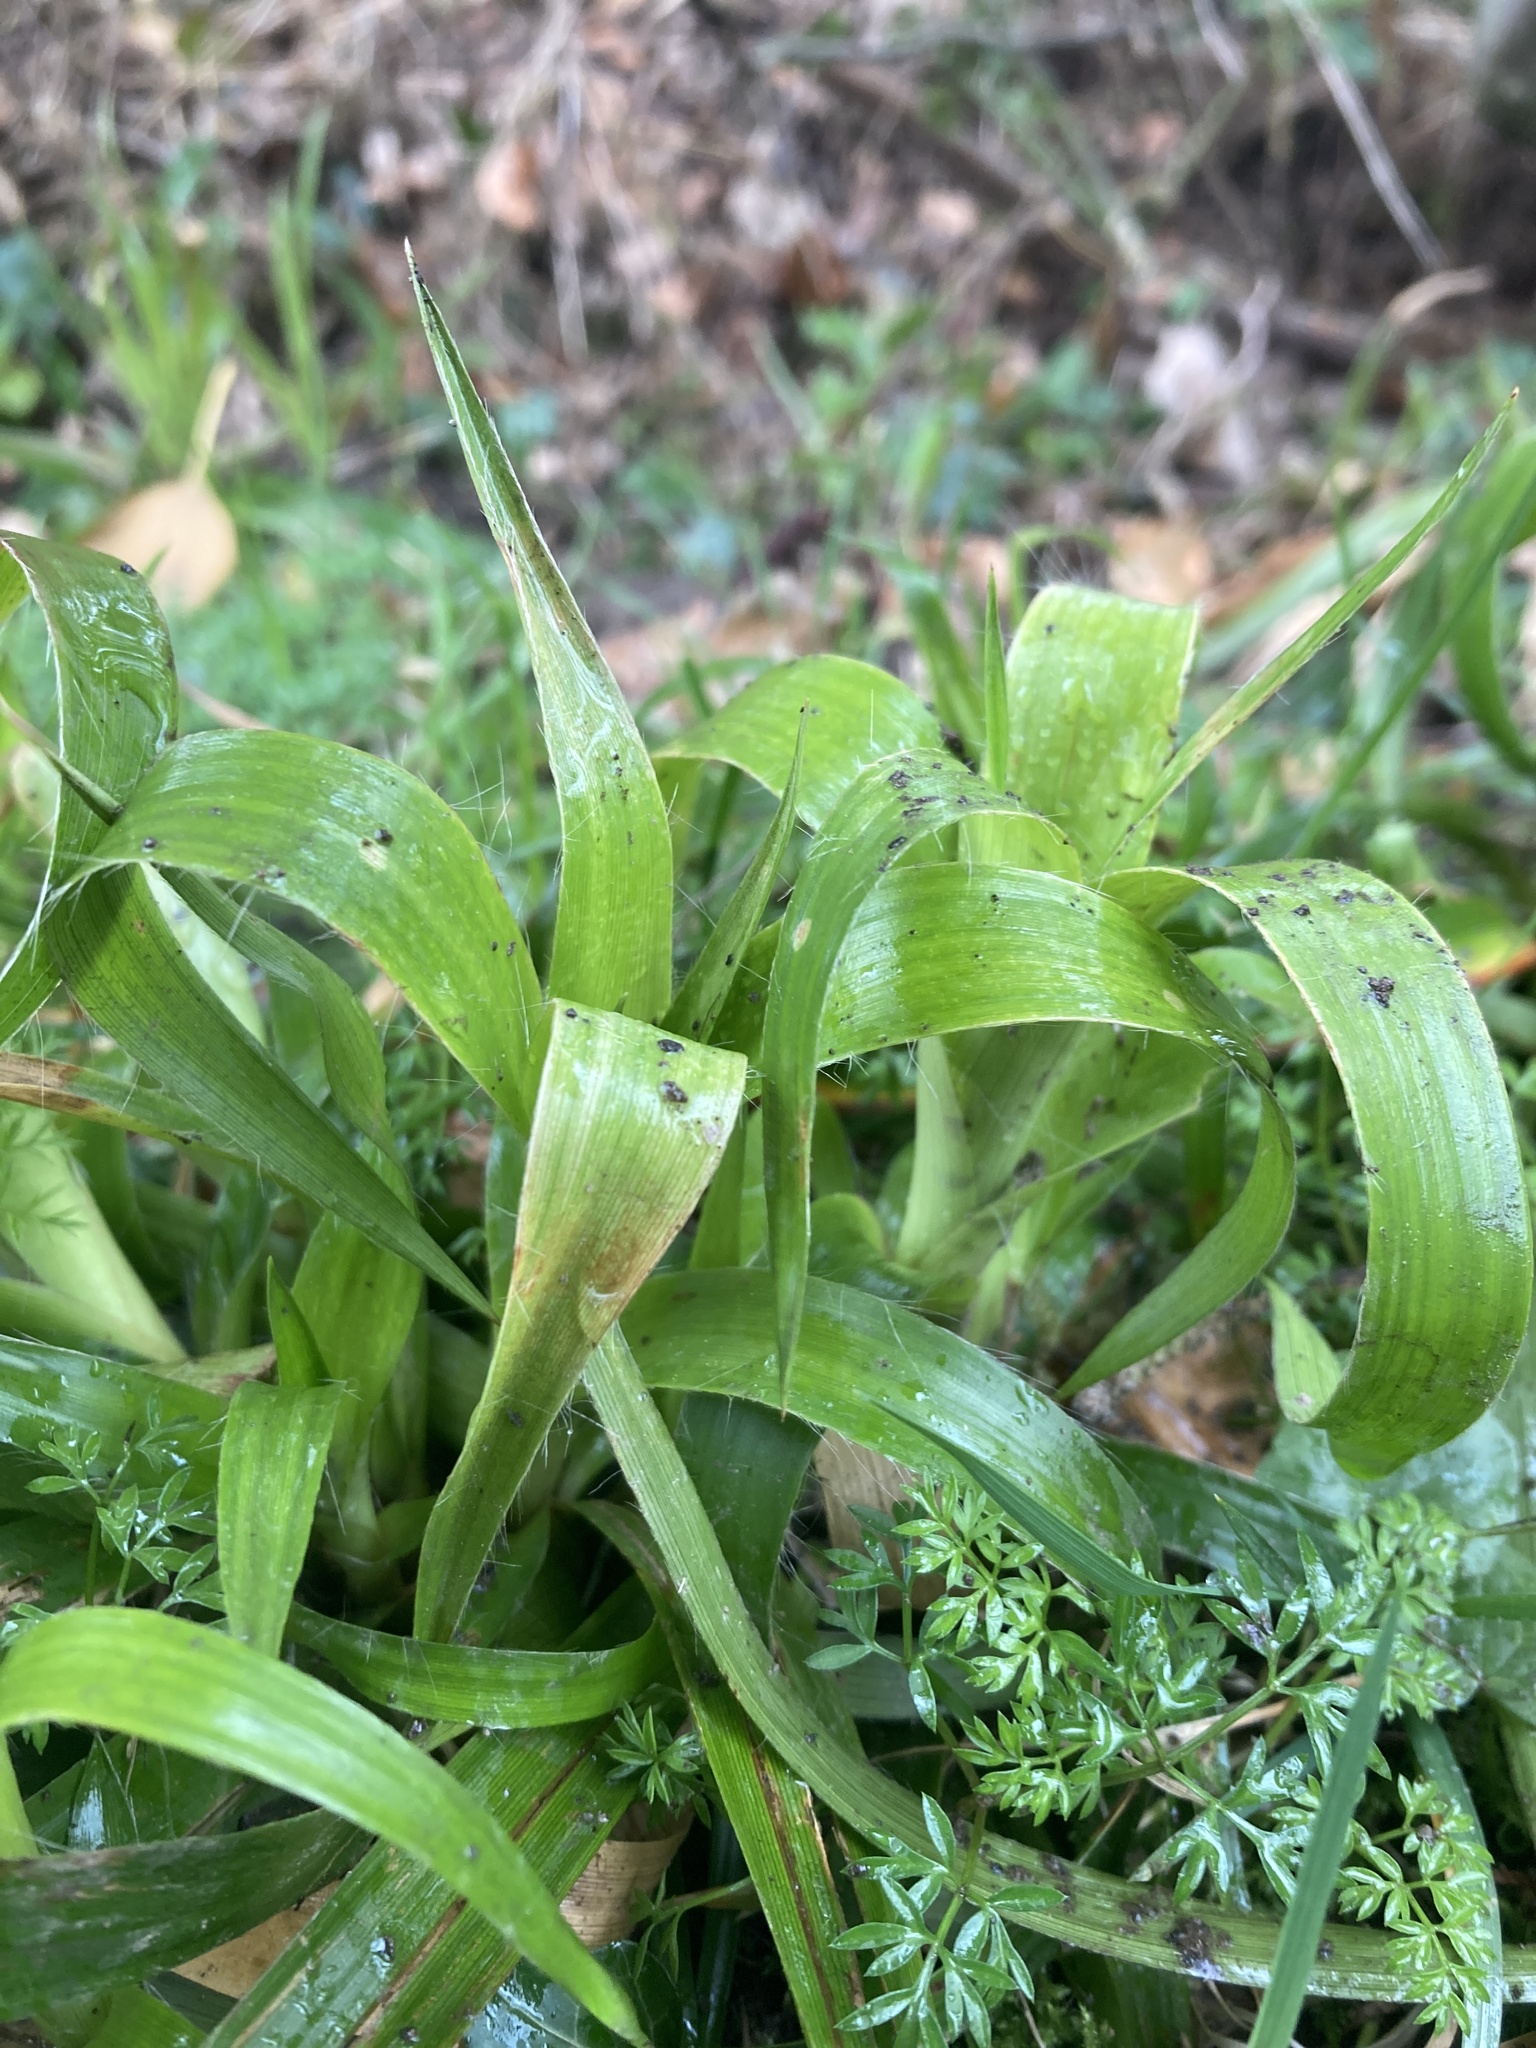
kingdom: Plantae
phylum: Tracheophyta
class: Liliopsida
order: Poales
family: Juncaceae
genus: Luzula
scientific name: Luzula sylvatica
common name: Great wood-rush
